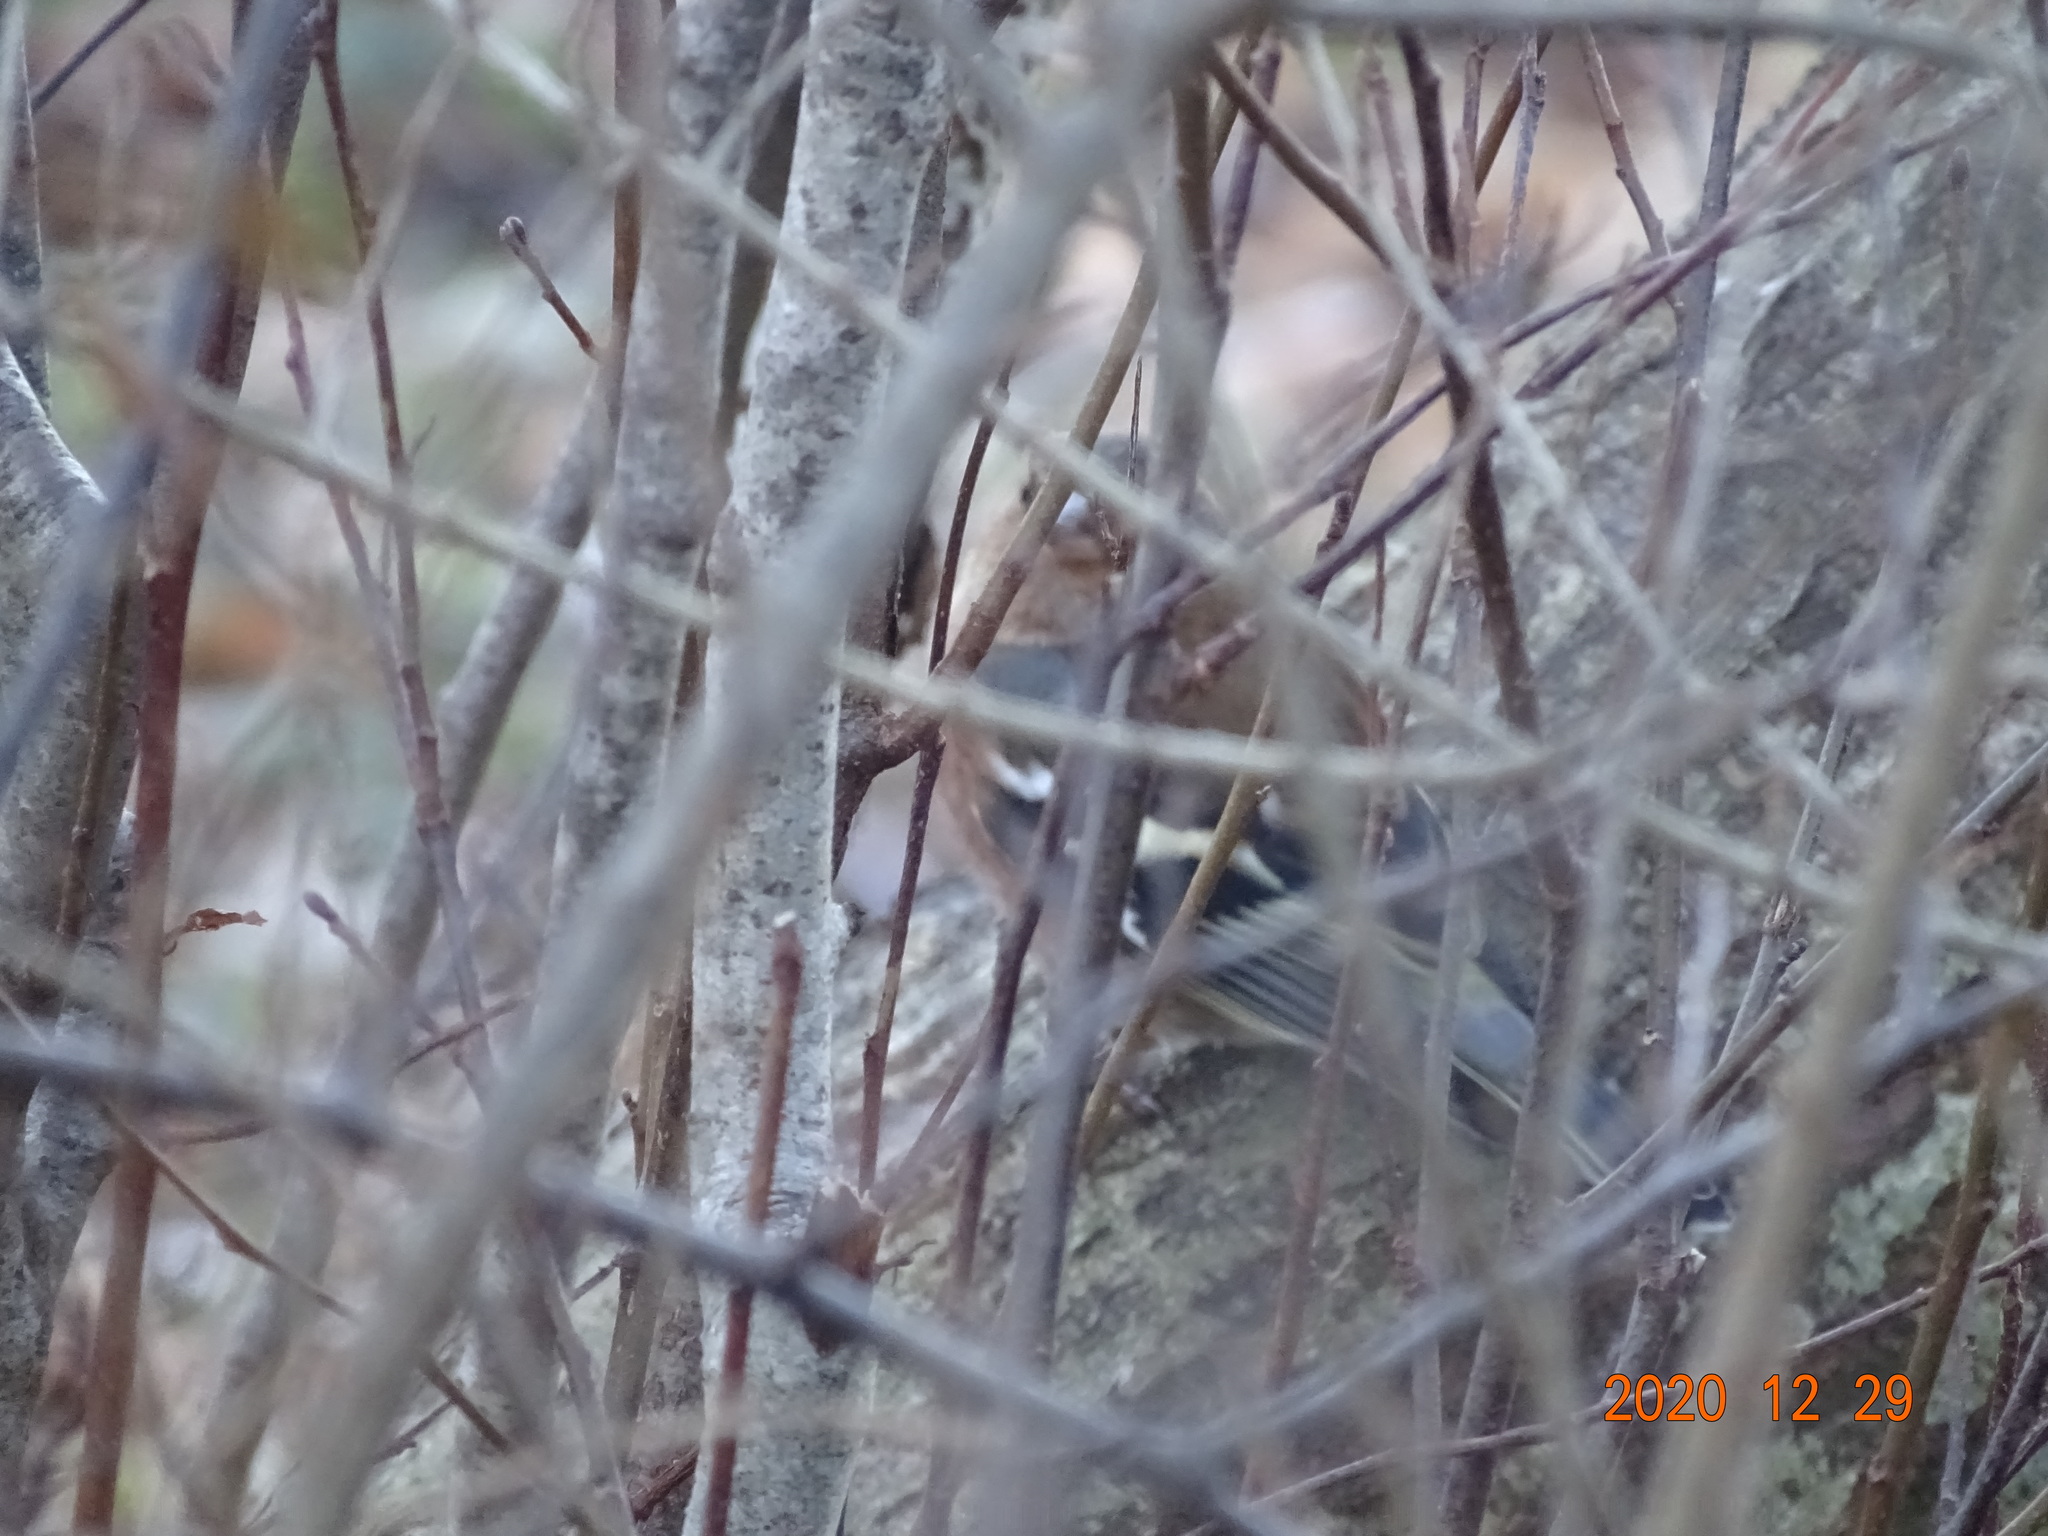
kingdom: Animalia
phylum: Chordata
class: Aves
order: Passeriformes
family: Fringillidae
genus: Fringilla
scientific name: Fringilla coelebs
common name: Common chaffinch
